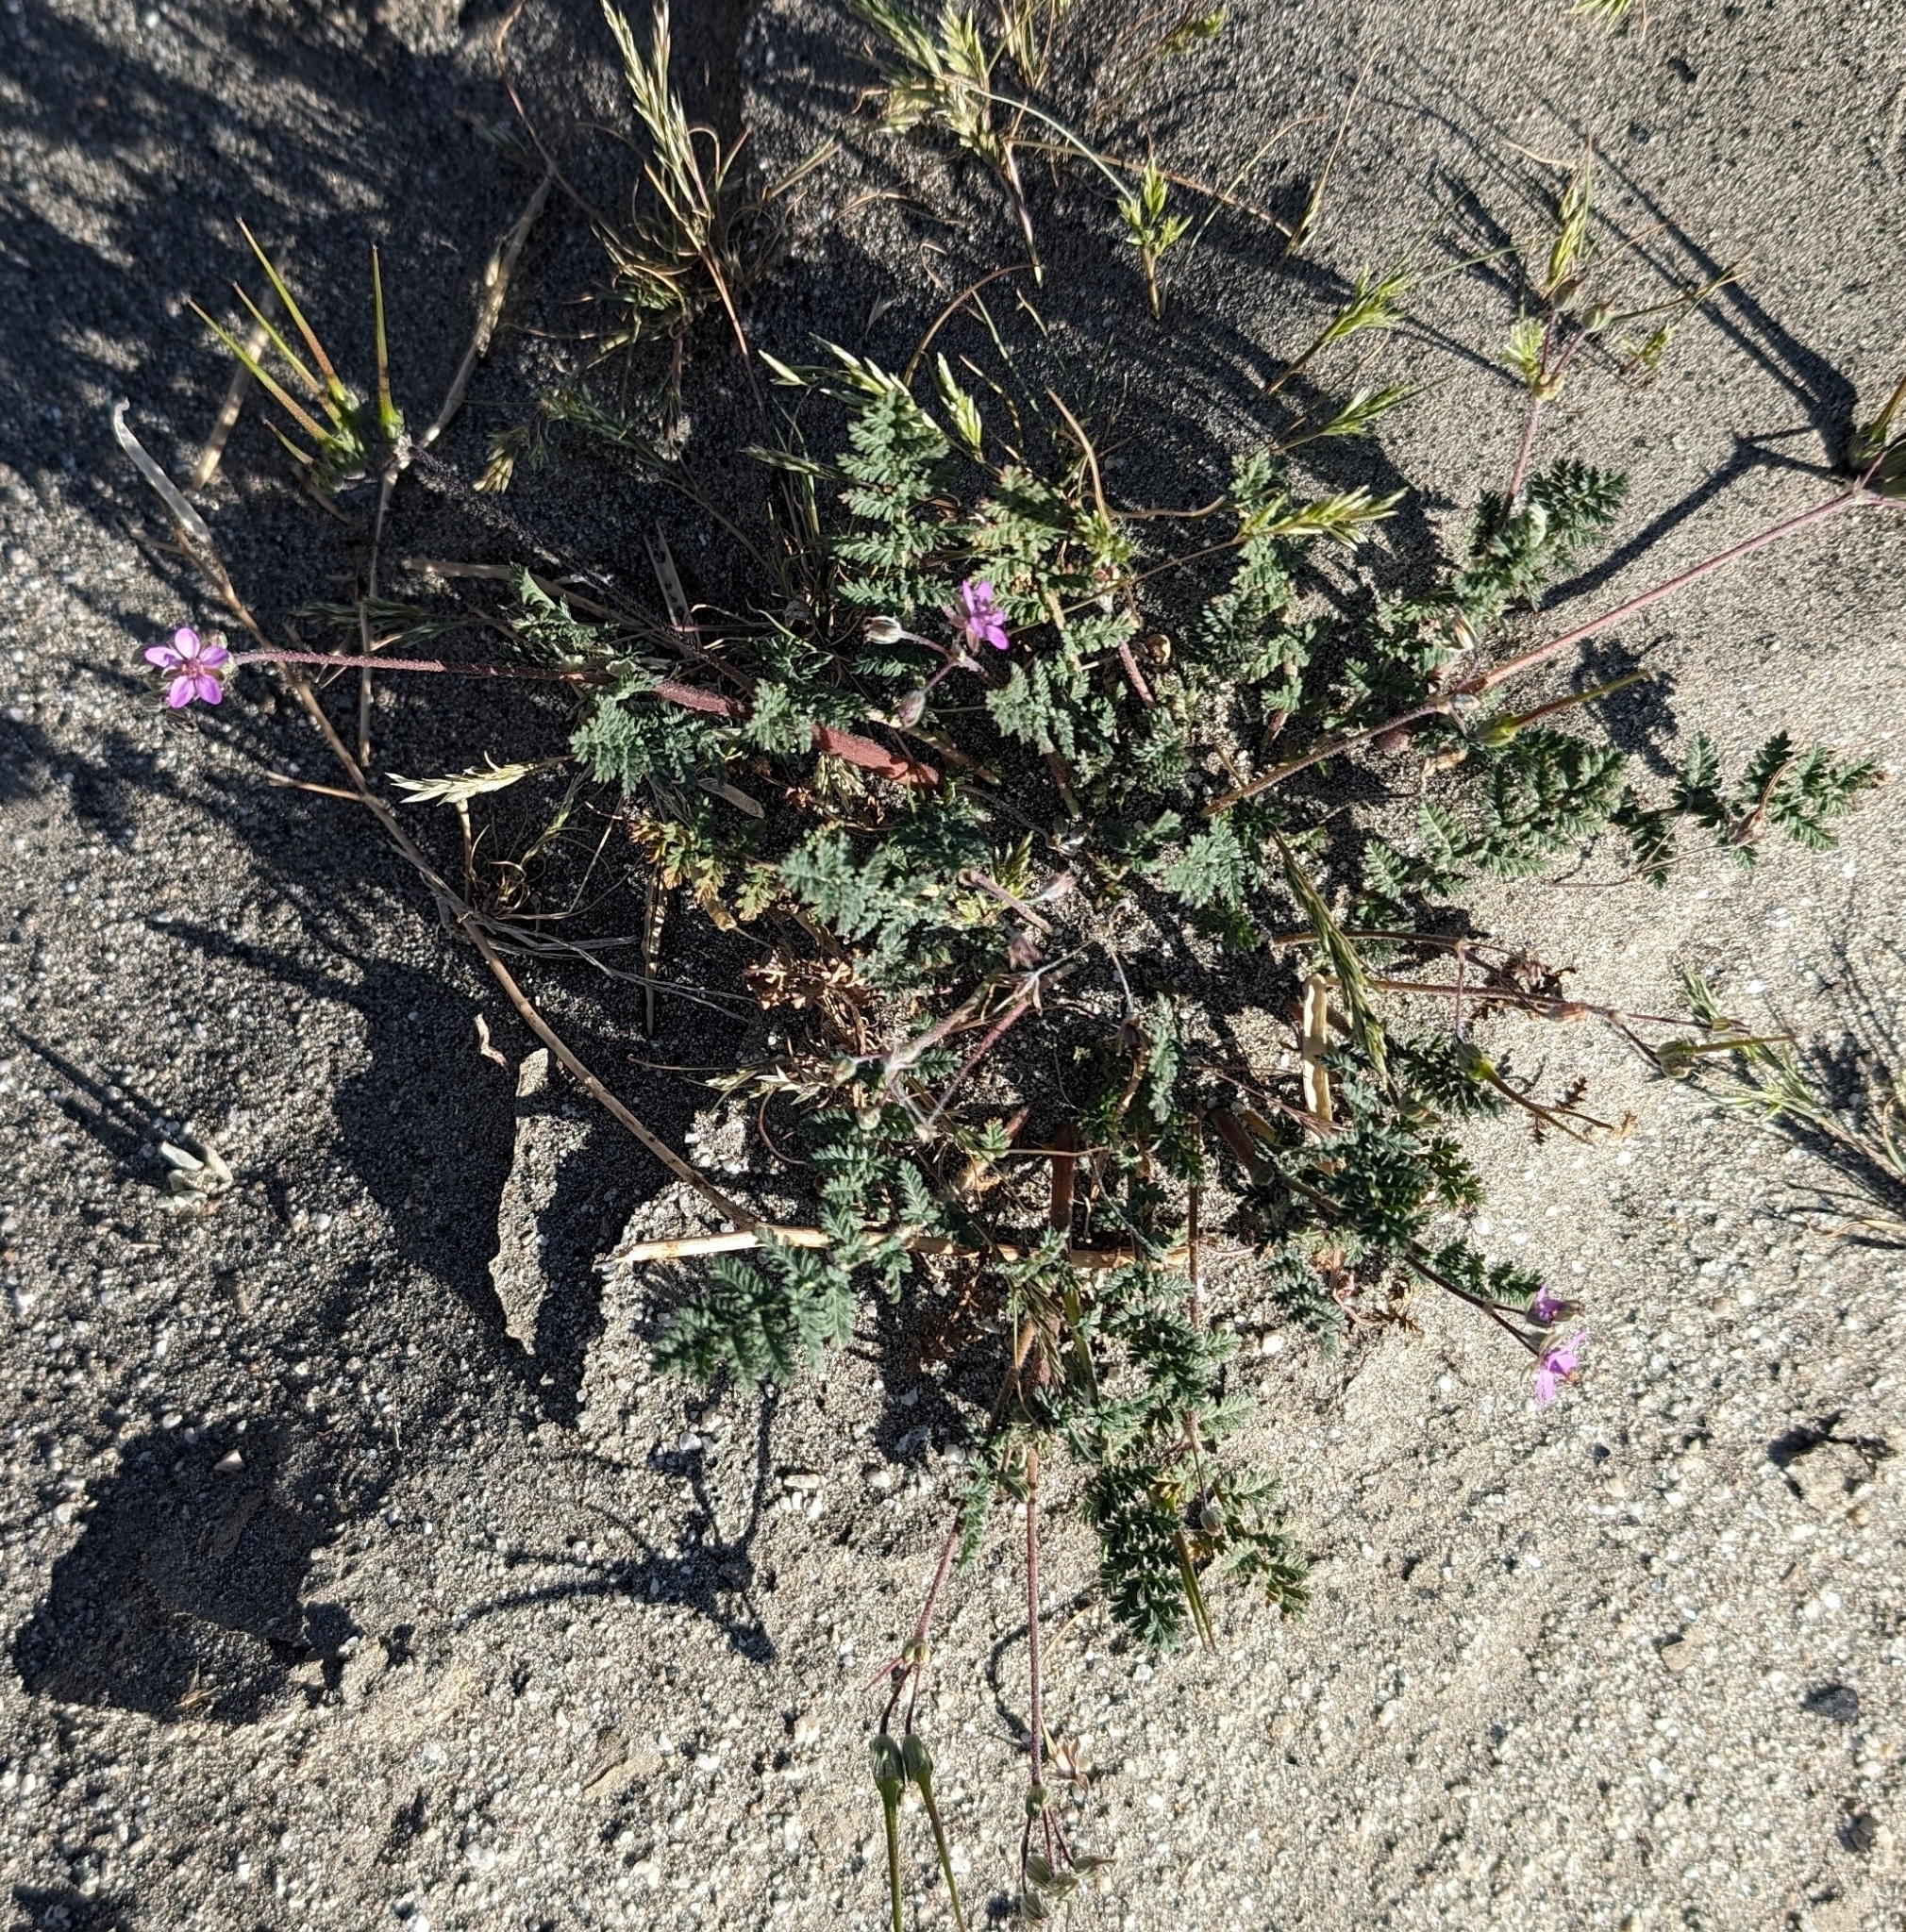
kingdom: Plantae
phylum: Tracheophyta
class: Magnoliopsida
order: Geraniales
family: Geraniaceae
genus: Erodium
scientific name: Erodium cicutarium
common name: Common stork's-bill
